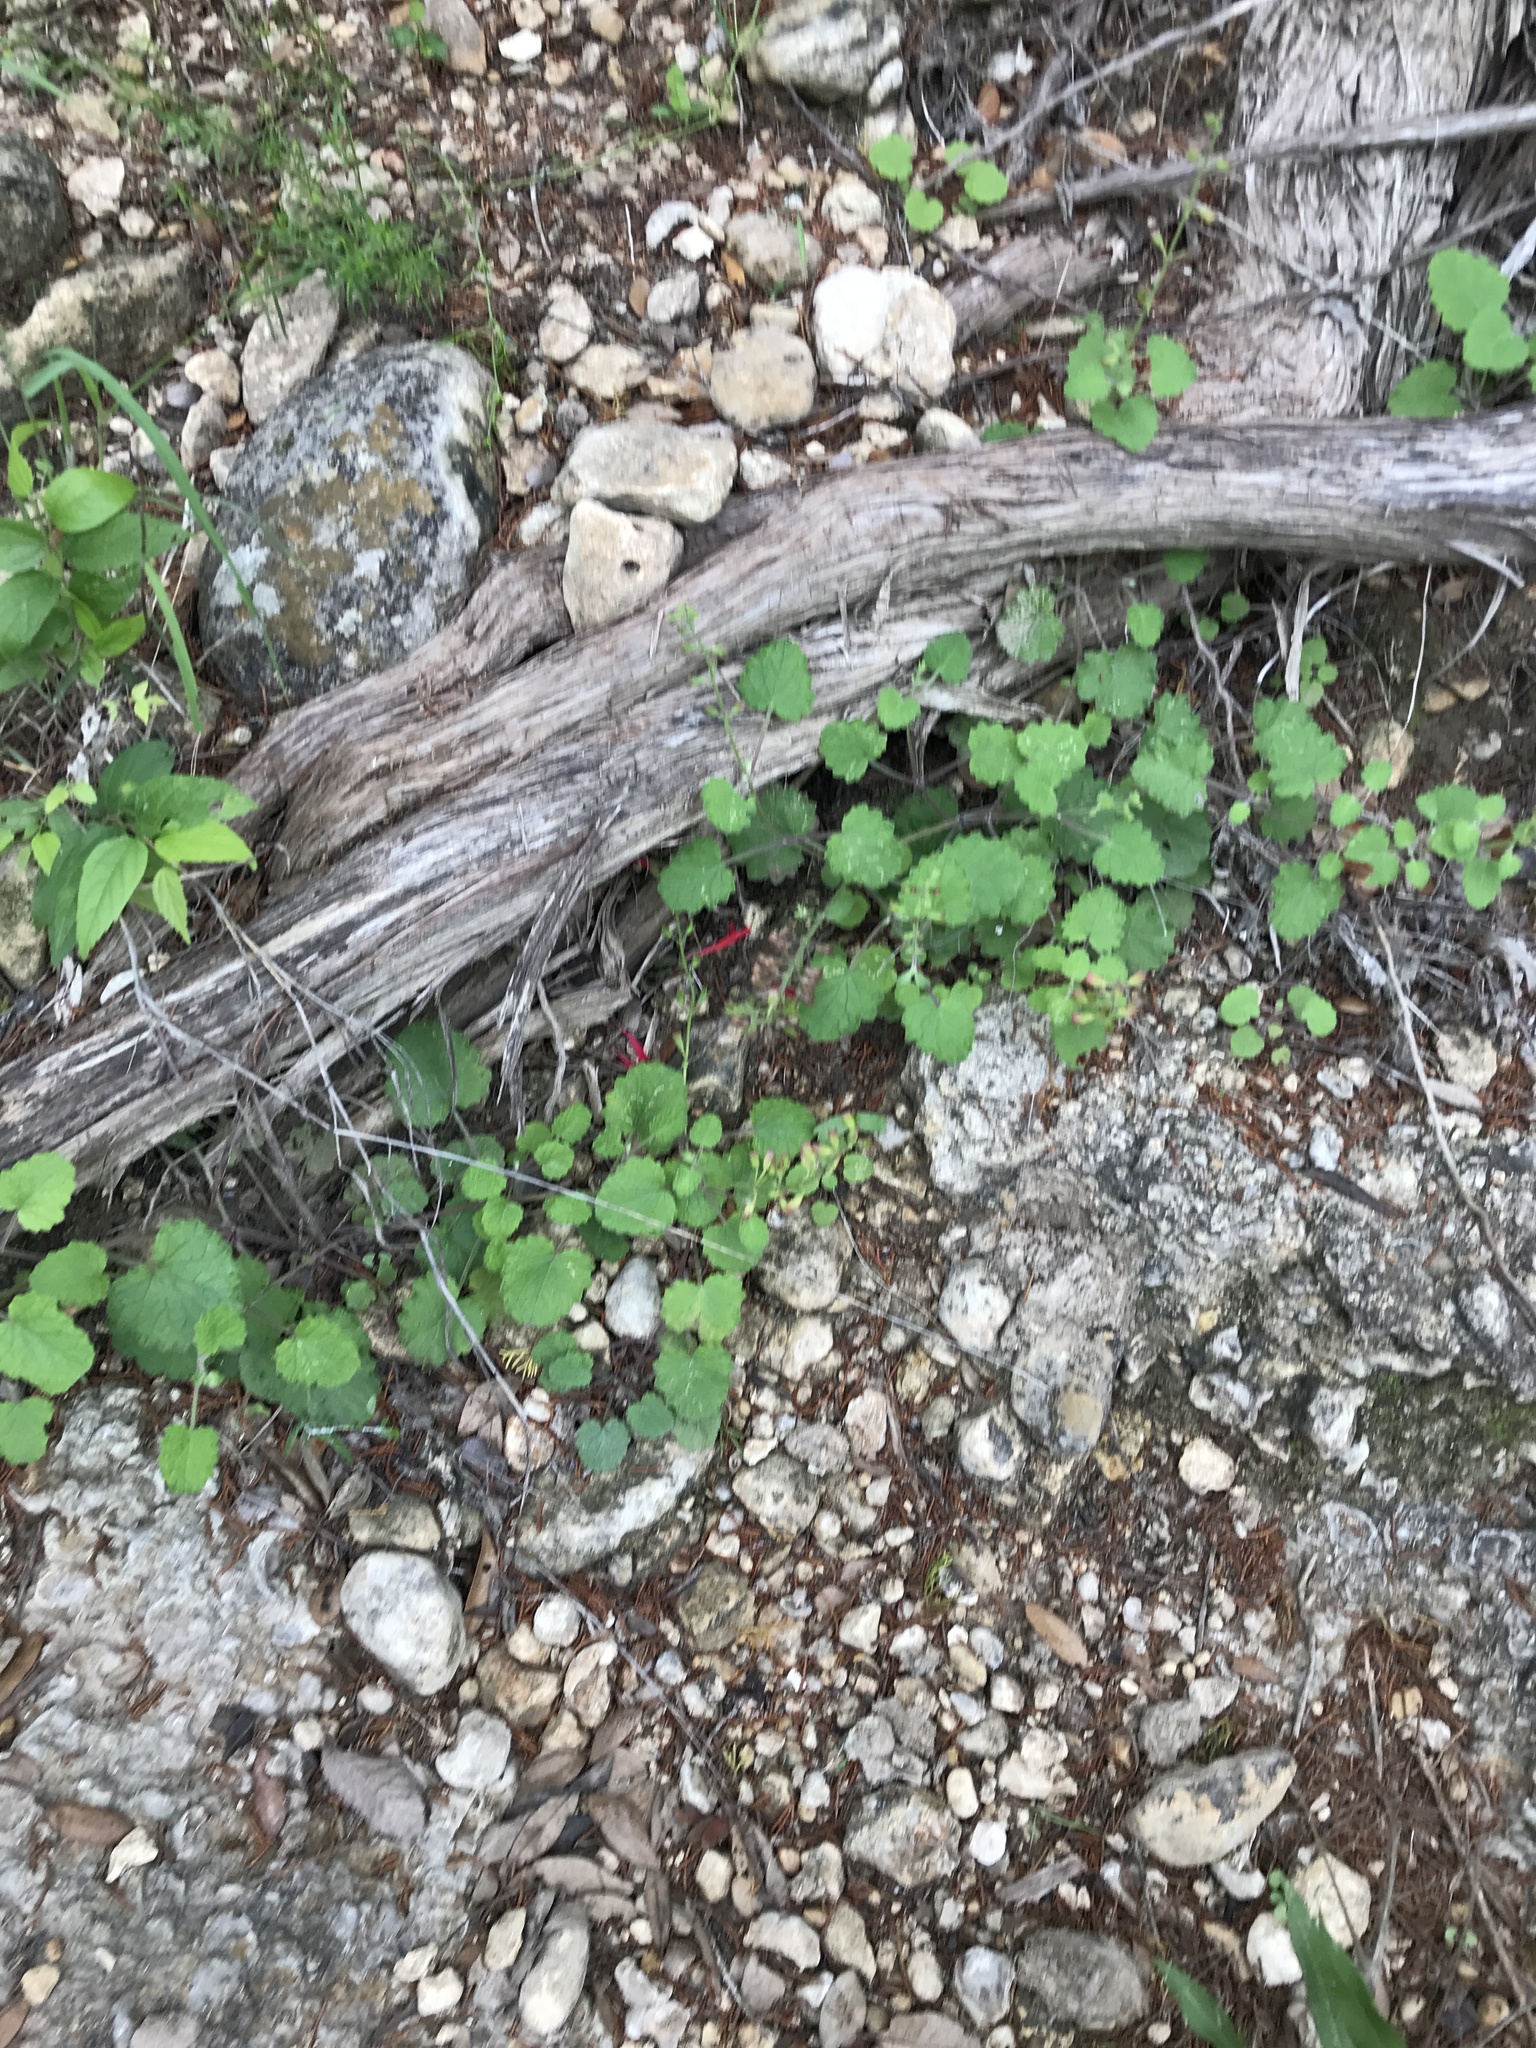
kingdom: Plantae
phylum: Tracheophyta
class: Magnoliopsida
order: Lamiales
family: Lamiaceae
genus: Salvia
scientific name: Salvia roemeriana
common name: Cedar sage
